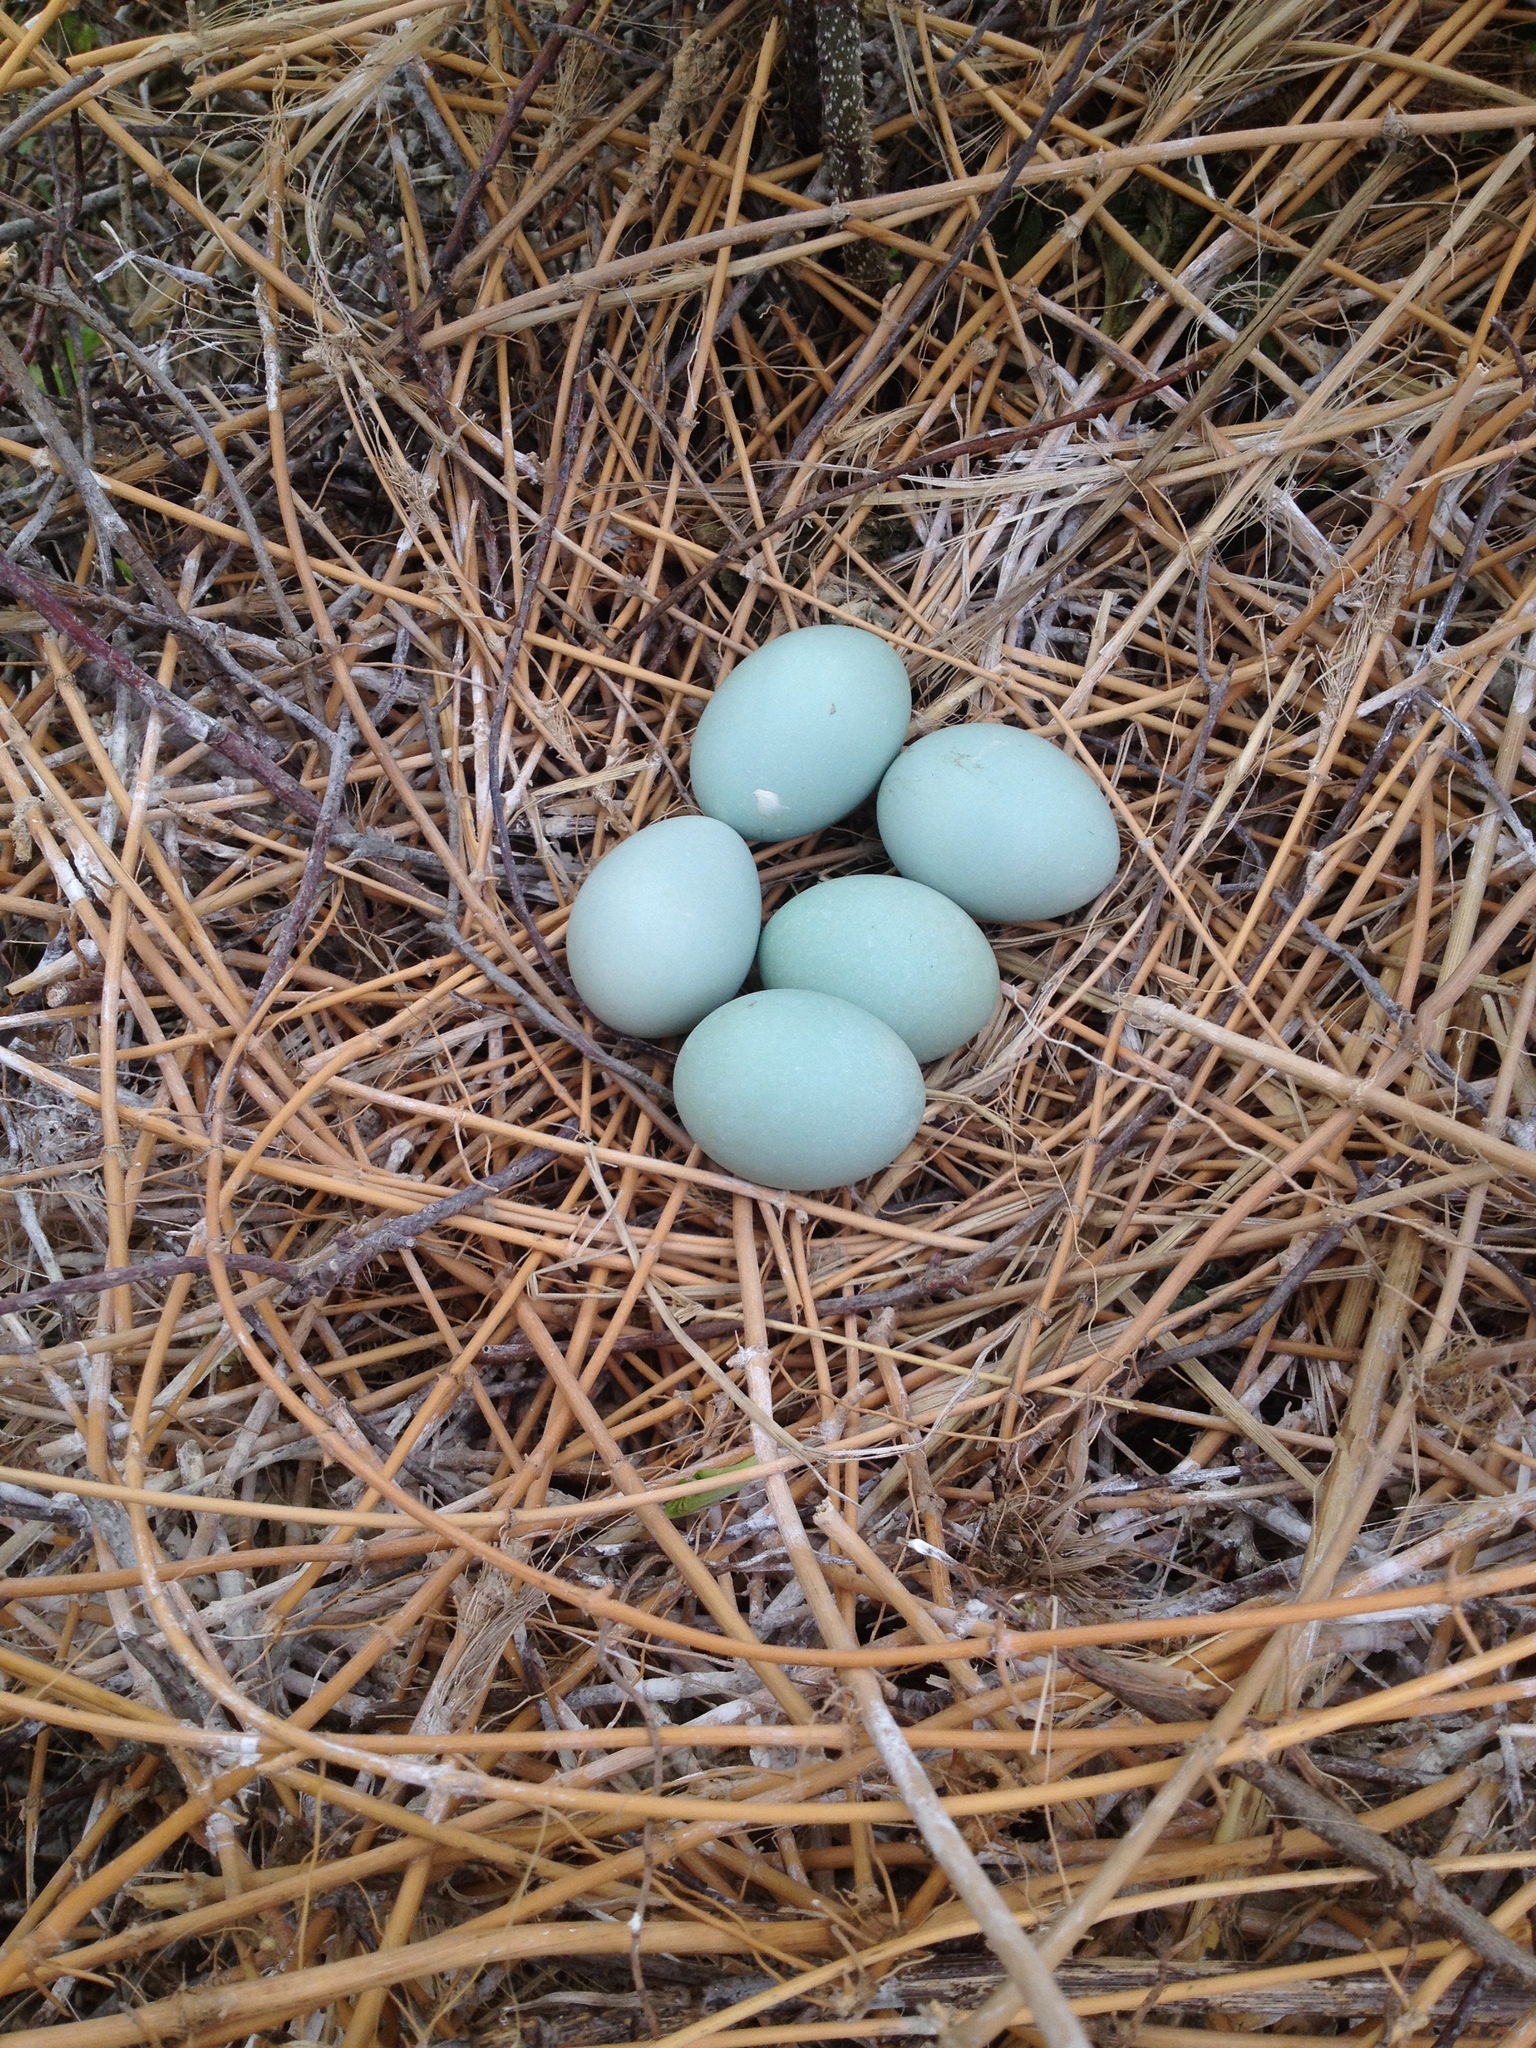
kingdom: Animalia
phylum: Chordata
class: Aves
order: Pelecaniformes
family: Ardeidae
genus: Ardea
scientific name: Ardea alba
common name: Great egret
